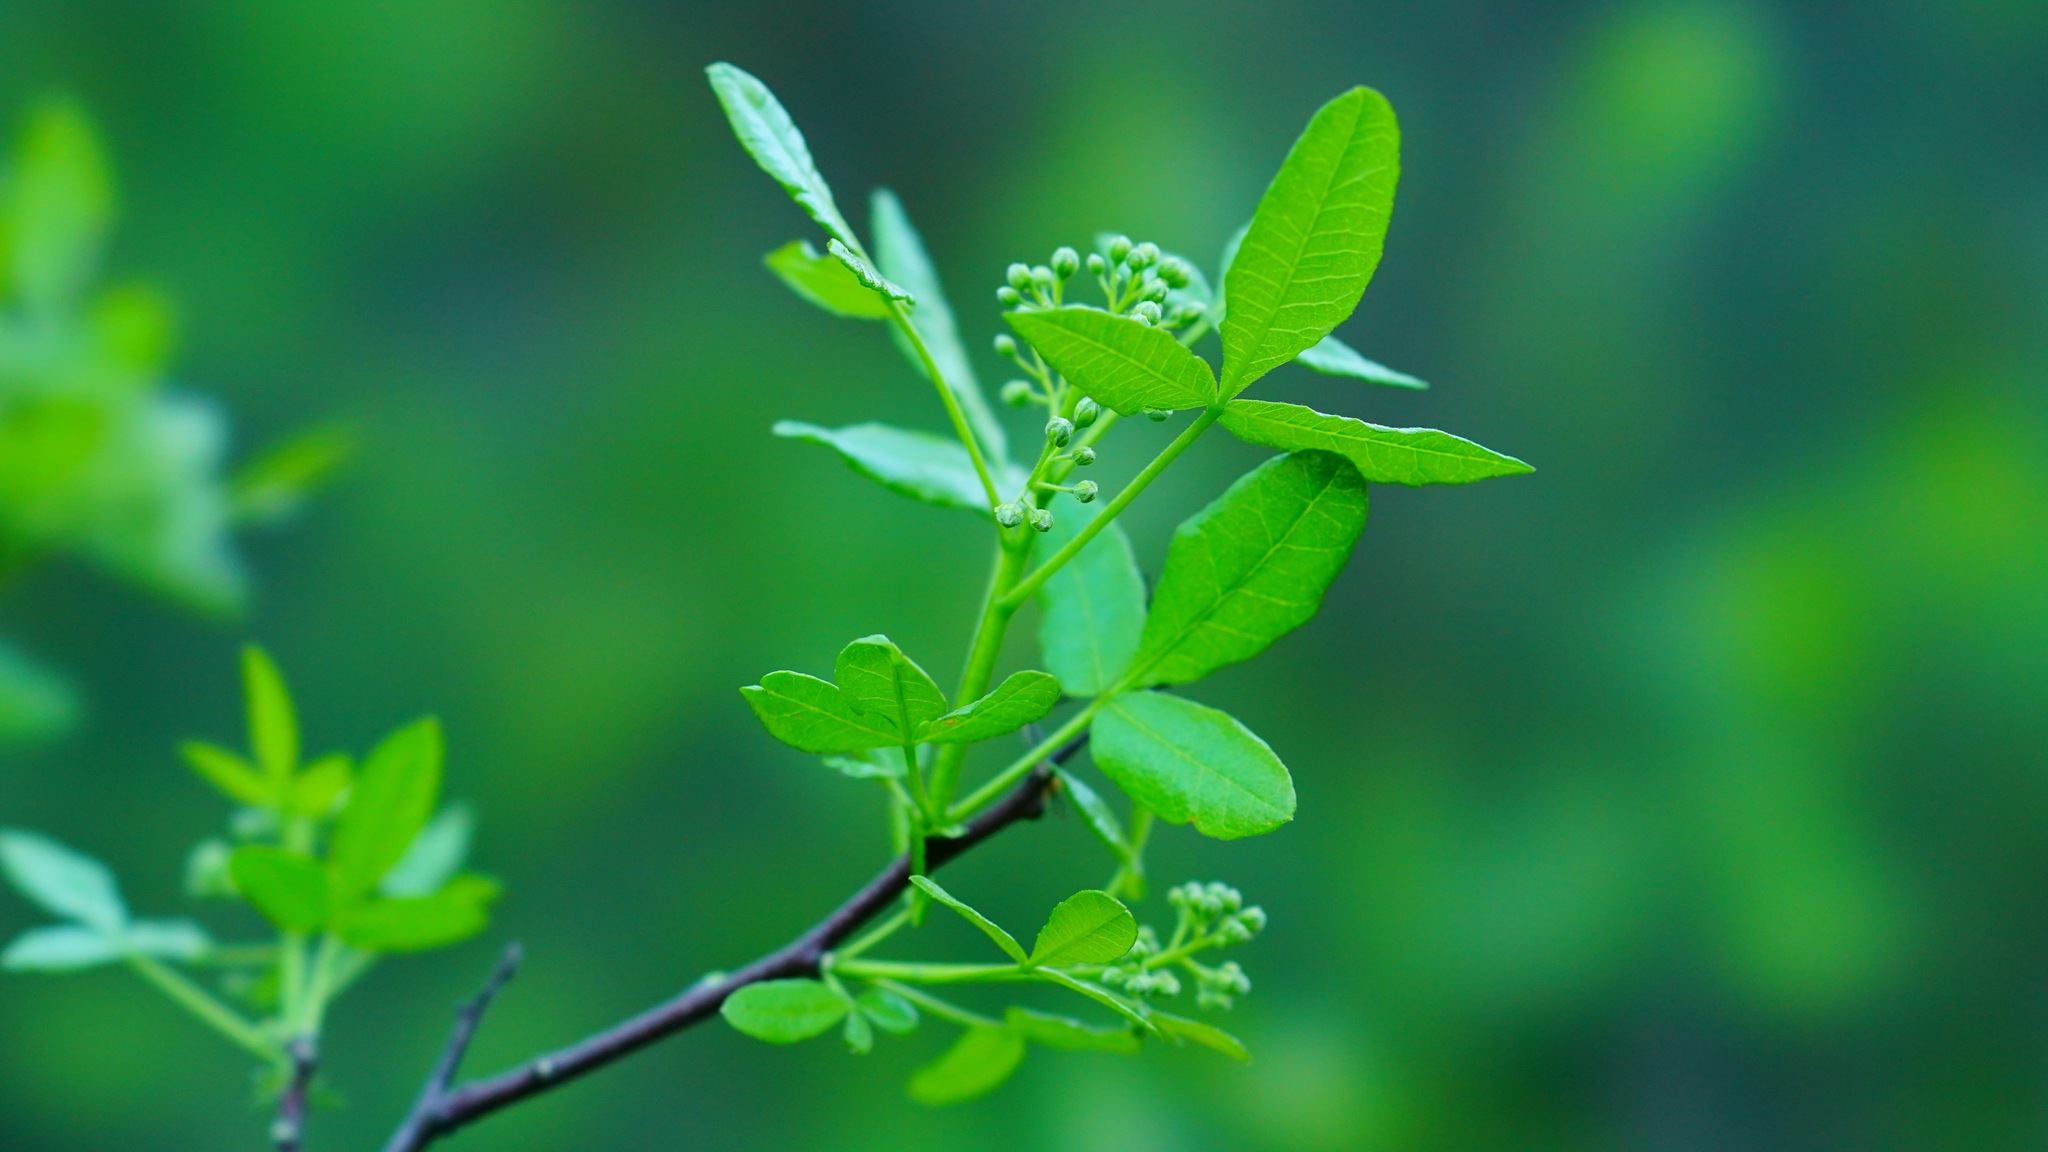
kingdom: Plantae
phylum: Tracheophyta
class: Magnoliopsida
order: Sapindales
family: Rutaceae
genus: Ptelea
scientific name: Ptelea crenulata
